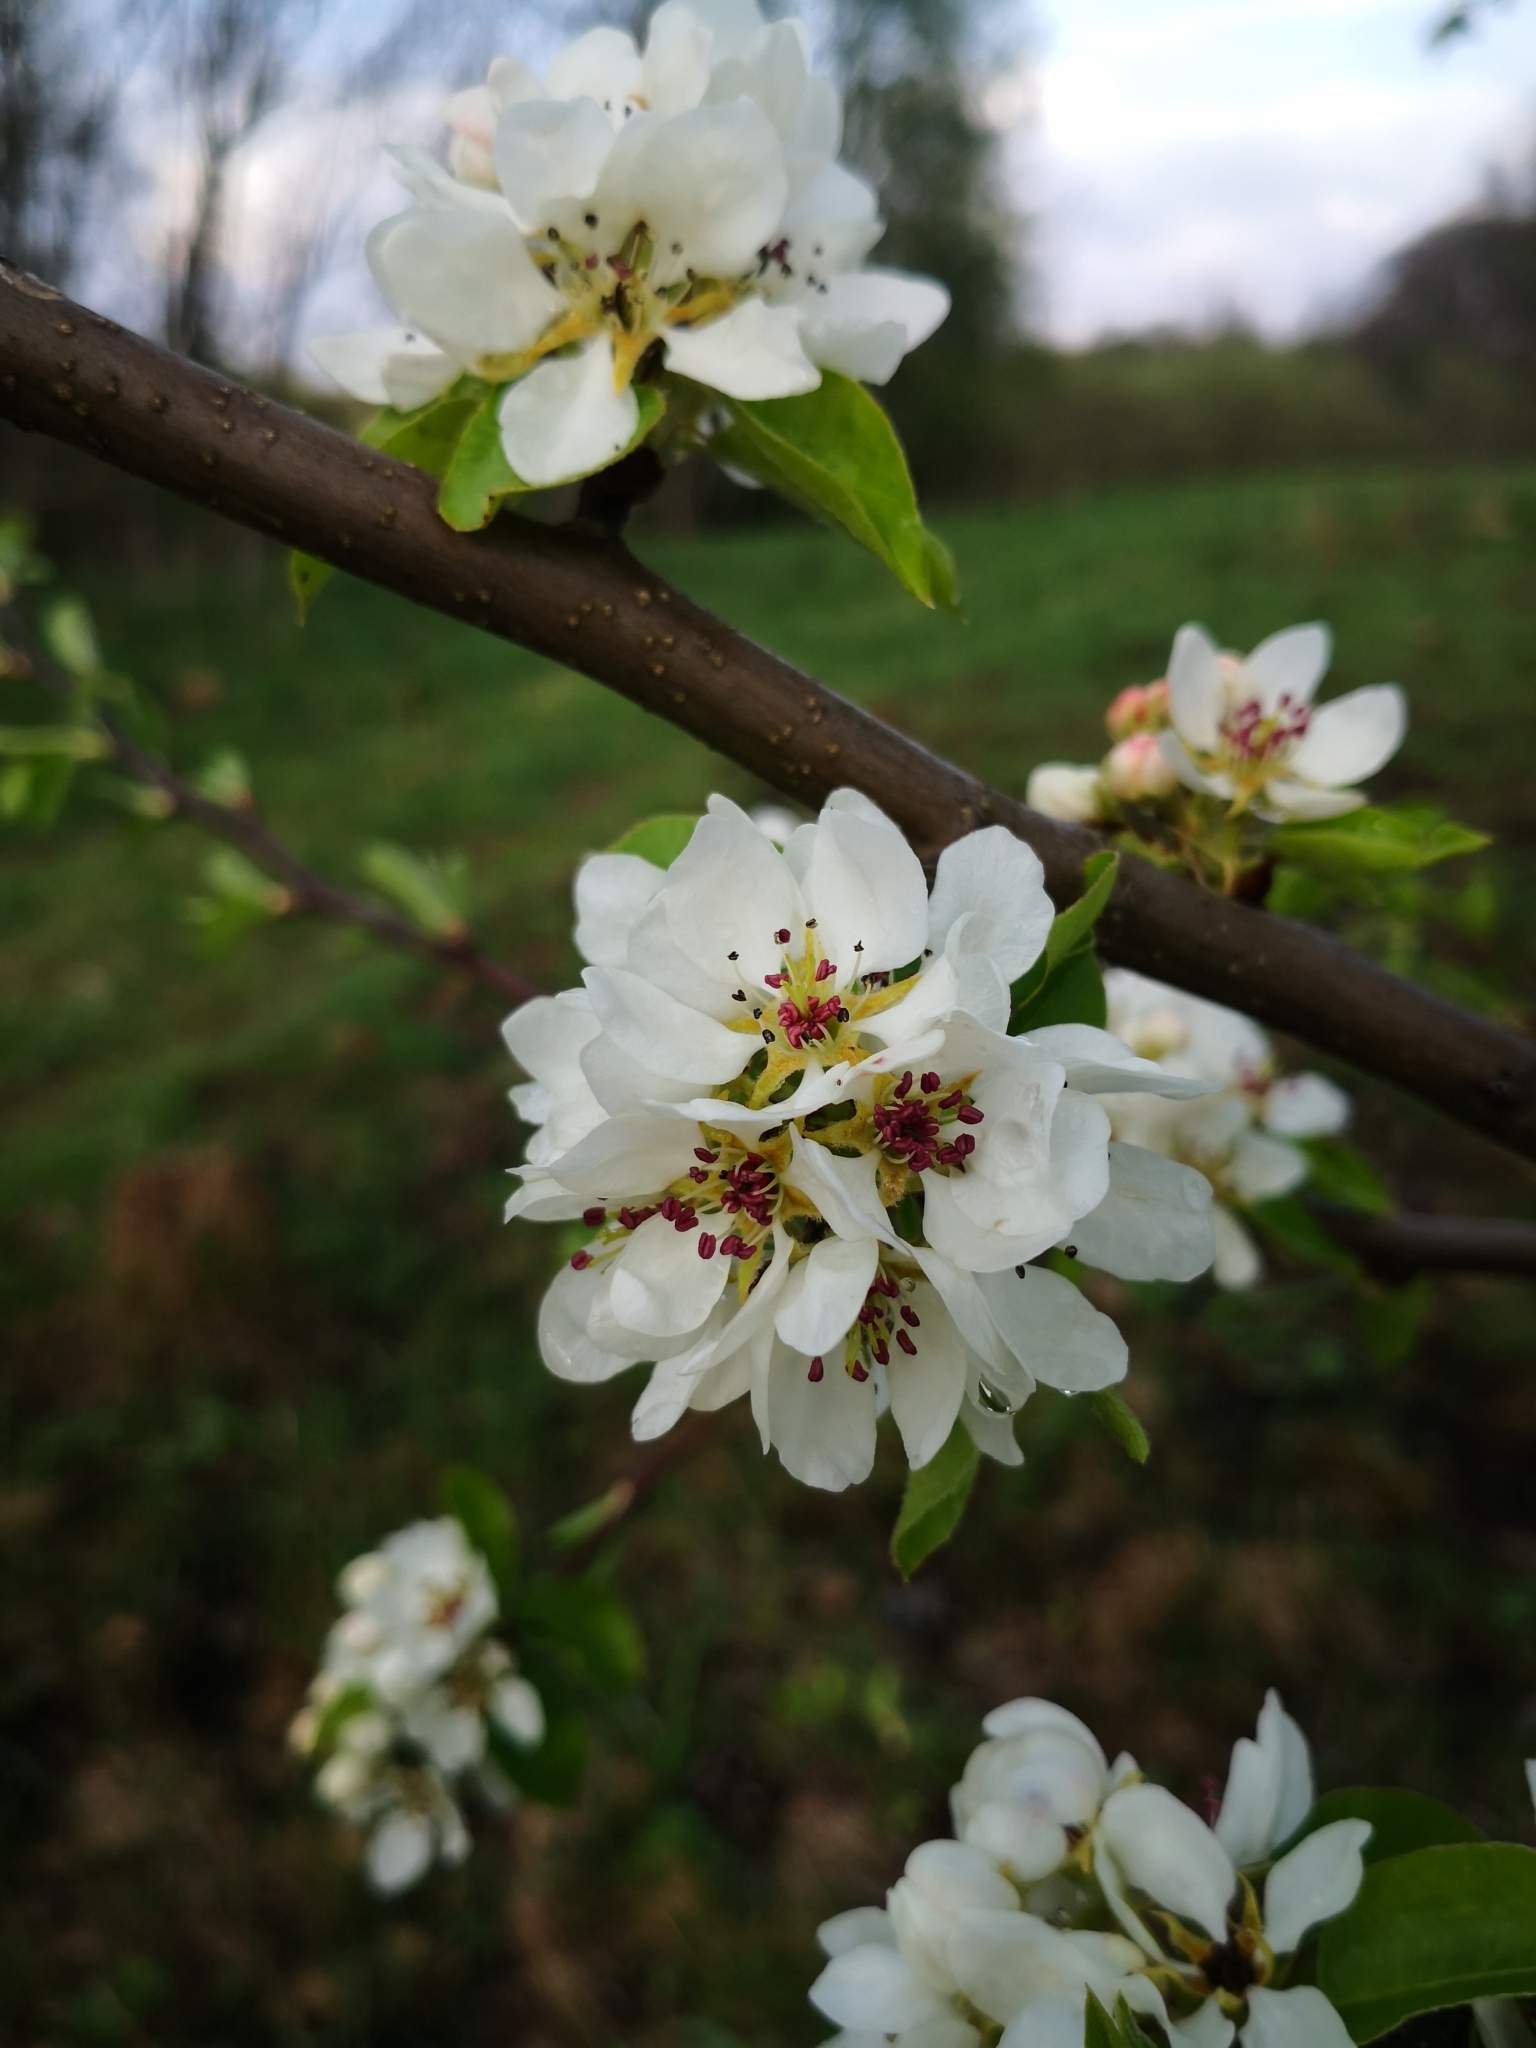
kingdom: Plantae
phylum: Tracheophyta
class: Magnoliopsida
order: Rosales
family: Rosaceae
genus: Pyrus
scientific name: Pyrus communis
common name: Pear
